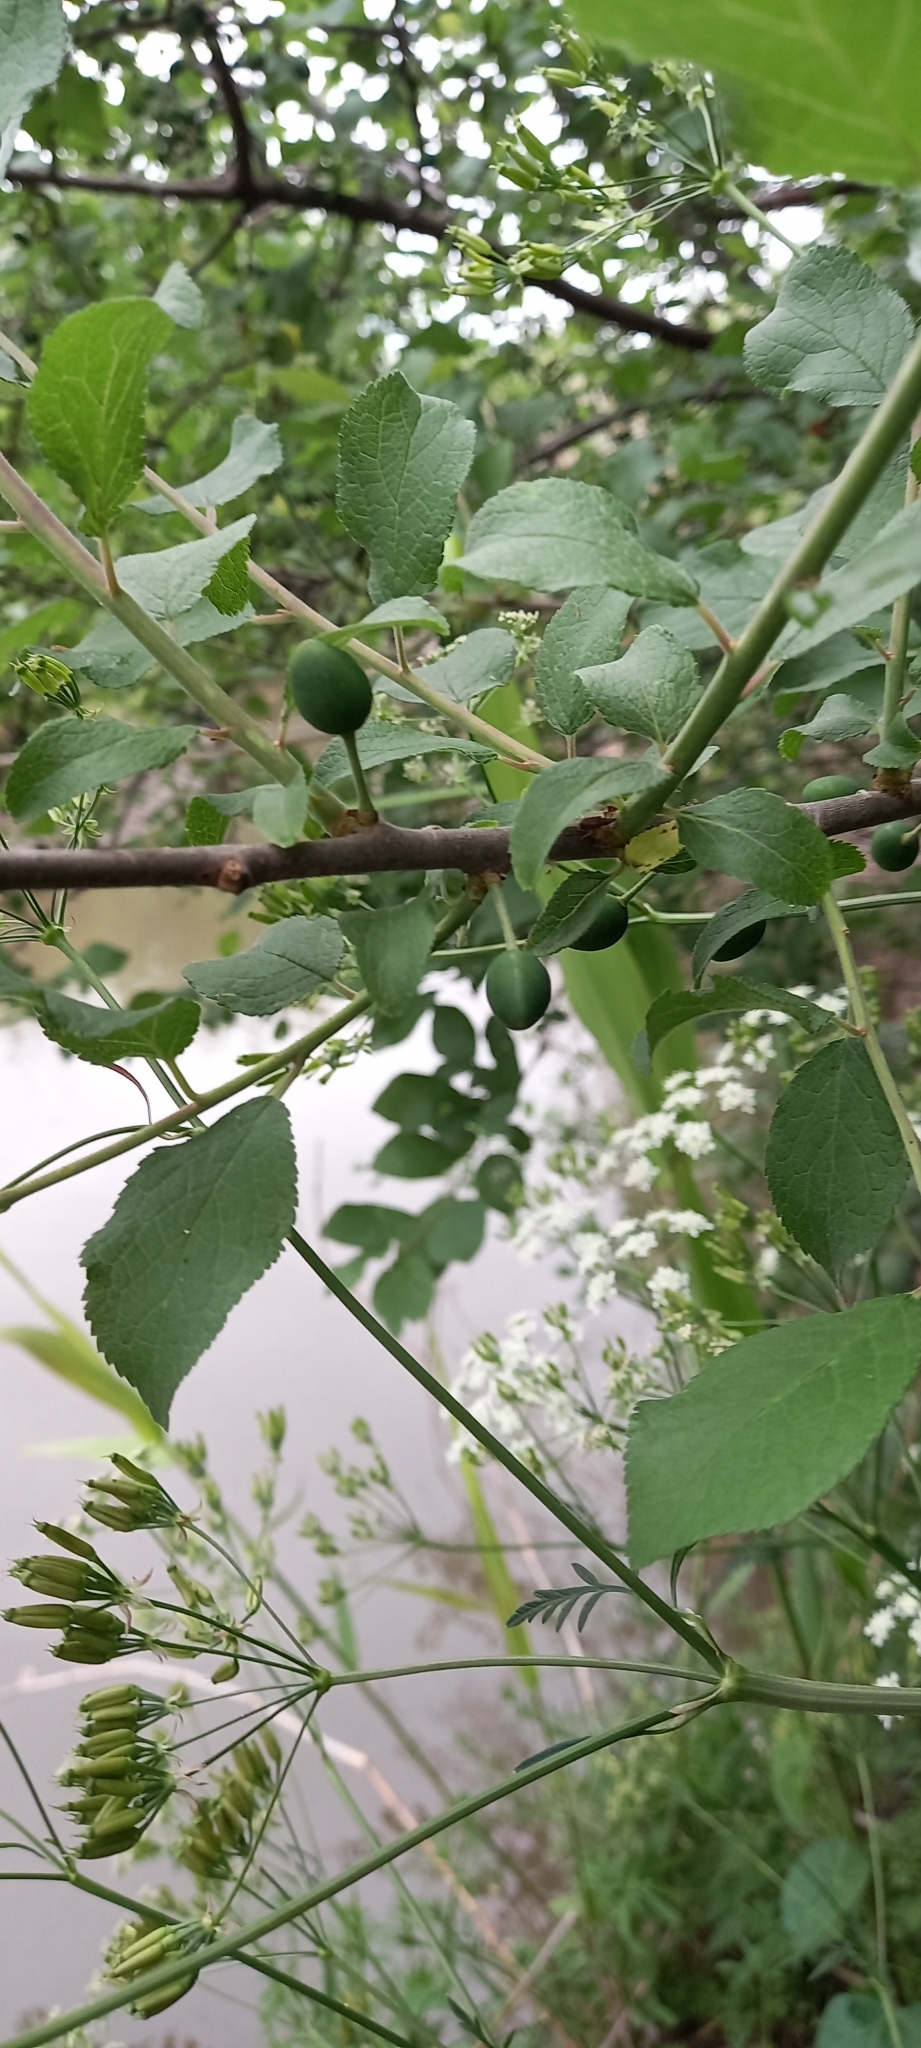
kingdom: Plantae
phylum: Tracheophyta
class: Magnoliopsida
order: Rosales
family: Rosaceae
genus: Prunus
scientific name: Prunus spinosa
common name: Blackthorn
